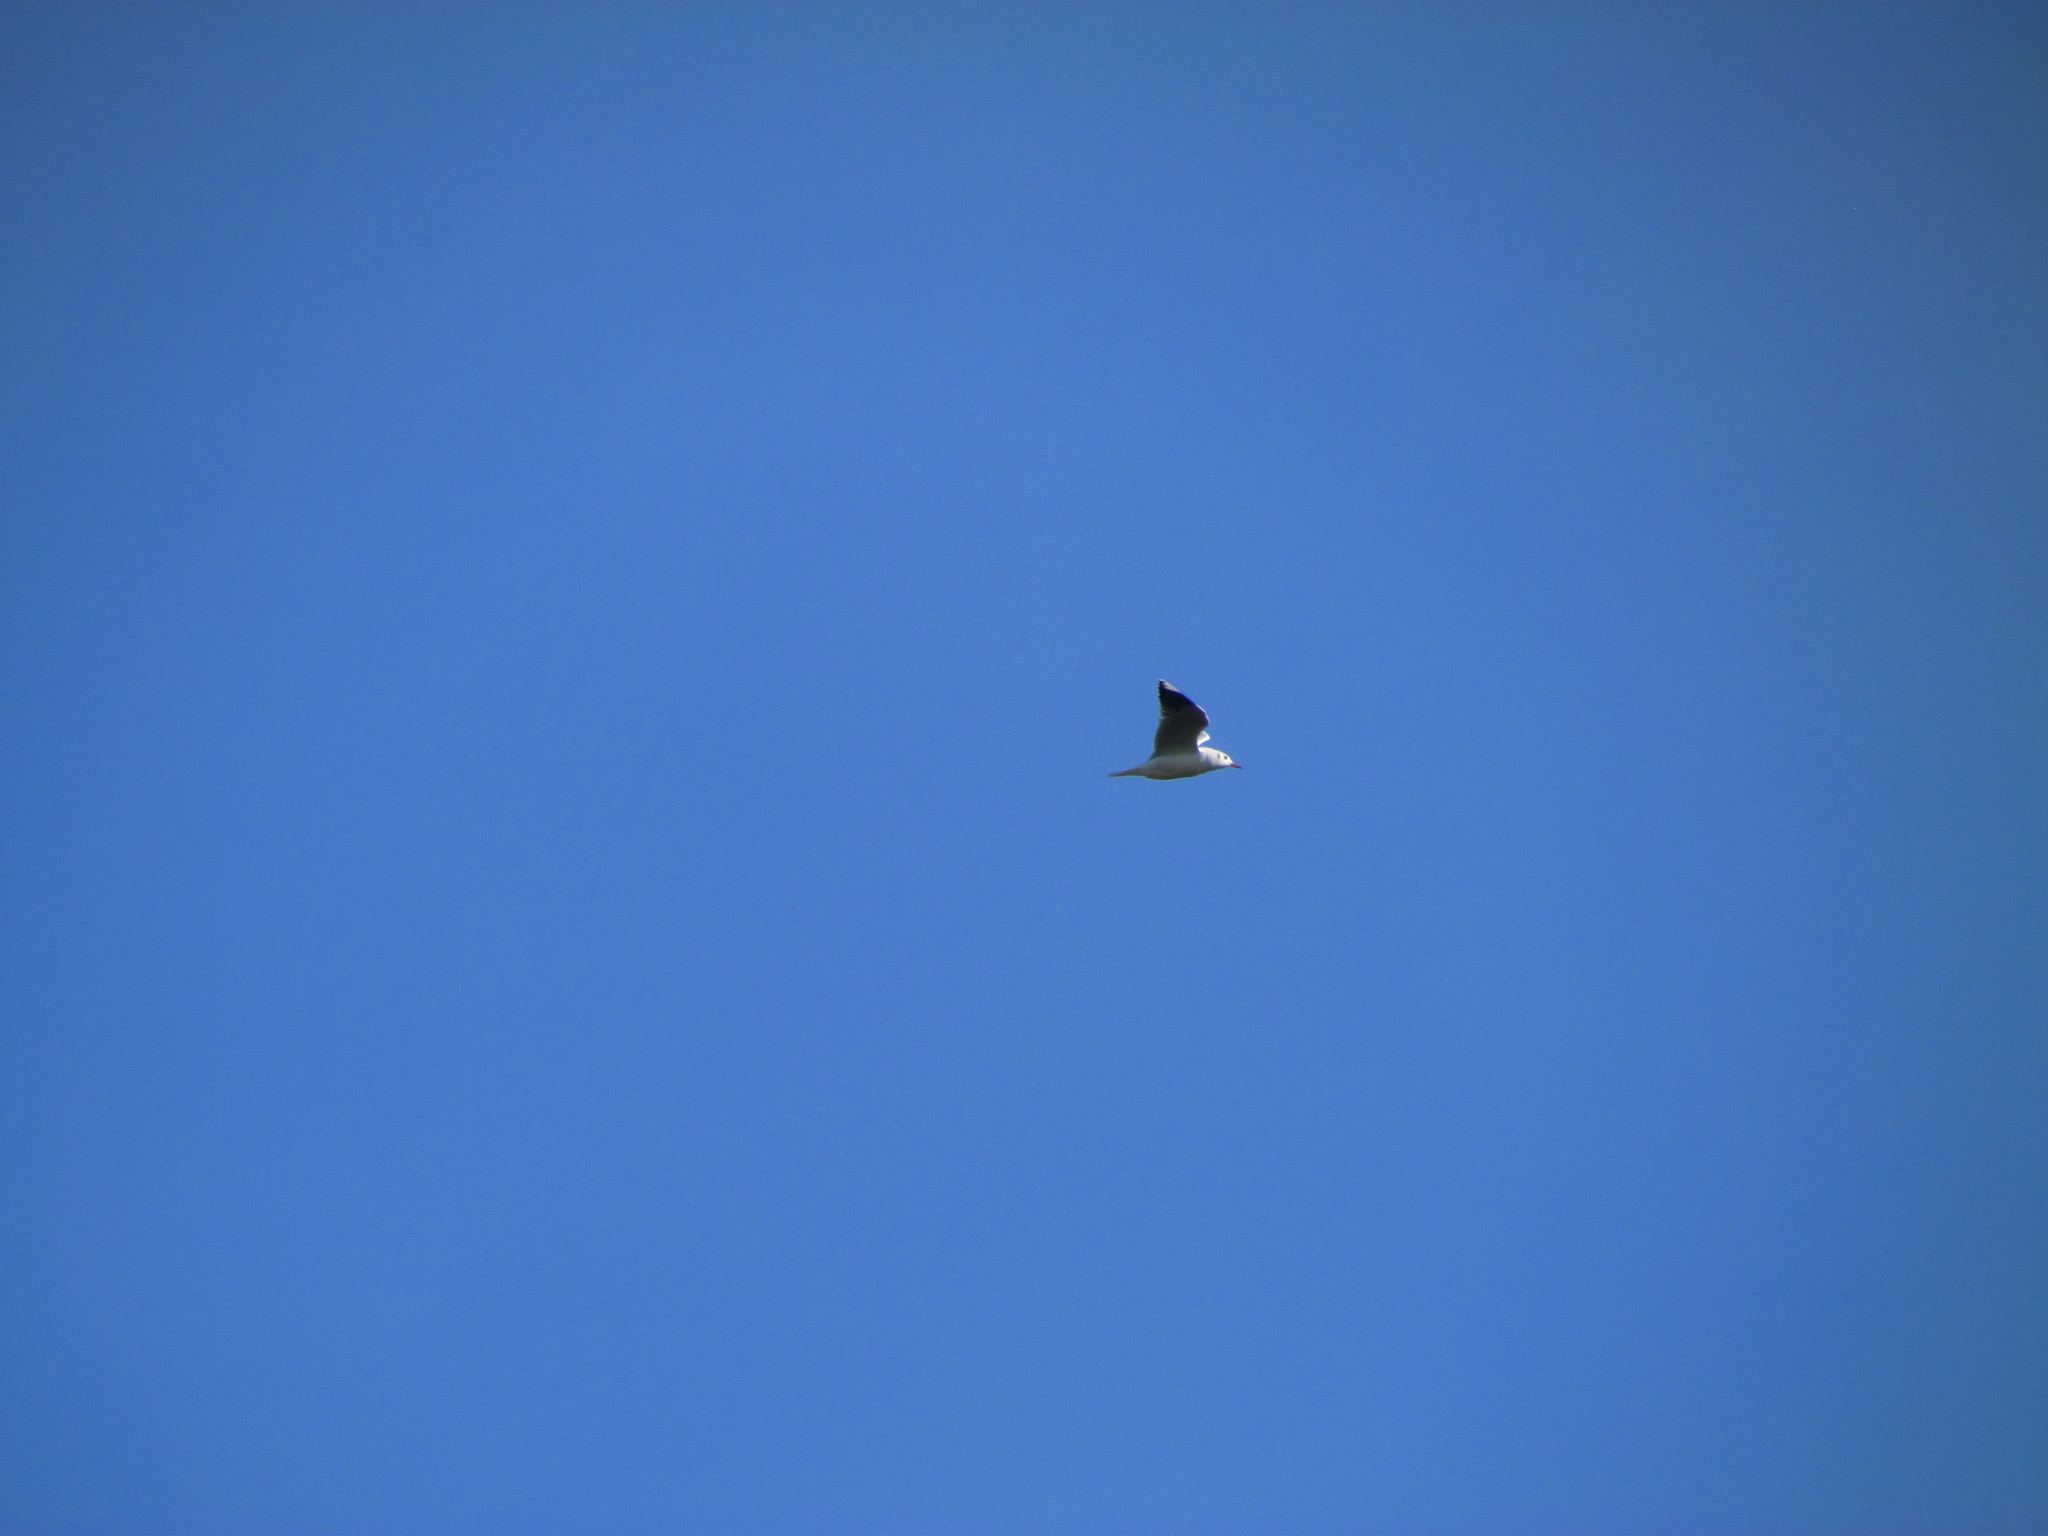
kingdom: Animalia
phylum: Chordata
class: Aves
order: Charadriiformes
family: Laridae
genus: Chroicocephalus
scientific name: Chroicocephalus maculipennis
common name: Brown-hooded gull
